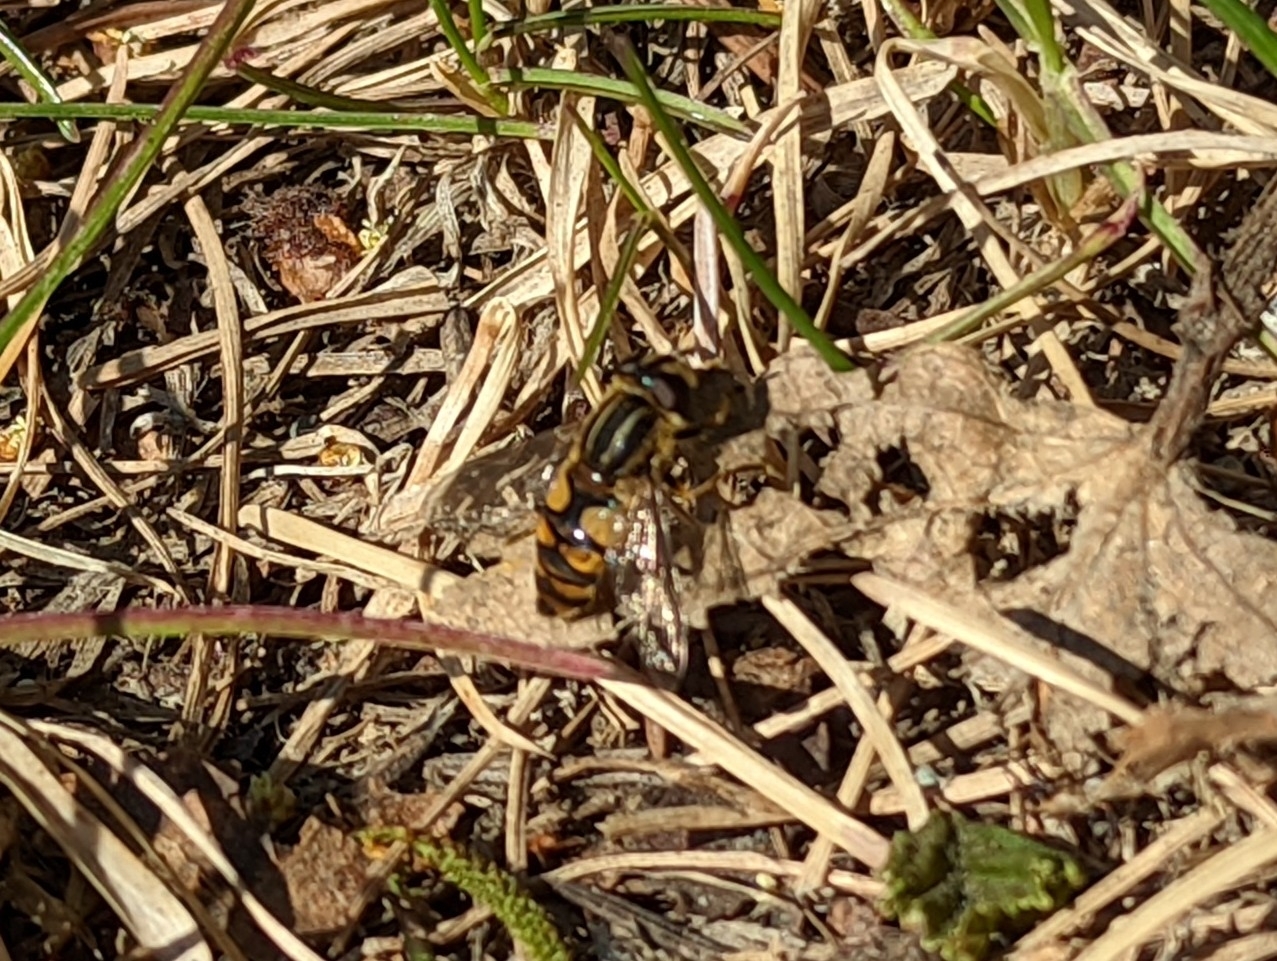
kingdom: Animalia
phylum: Arthropoda
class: Insecta
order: Diptera
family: Syrphidae
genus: Helophilus
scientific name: Helophilus hybridus
